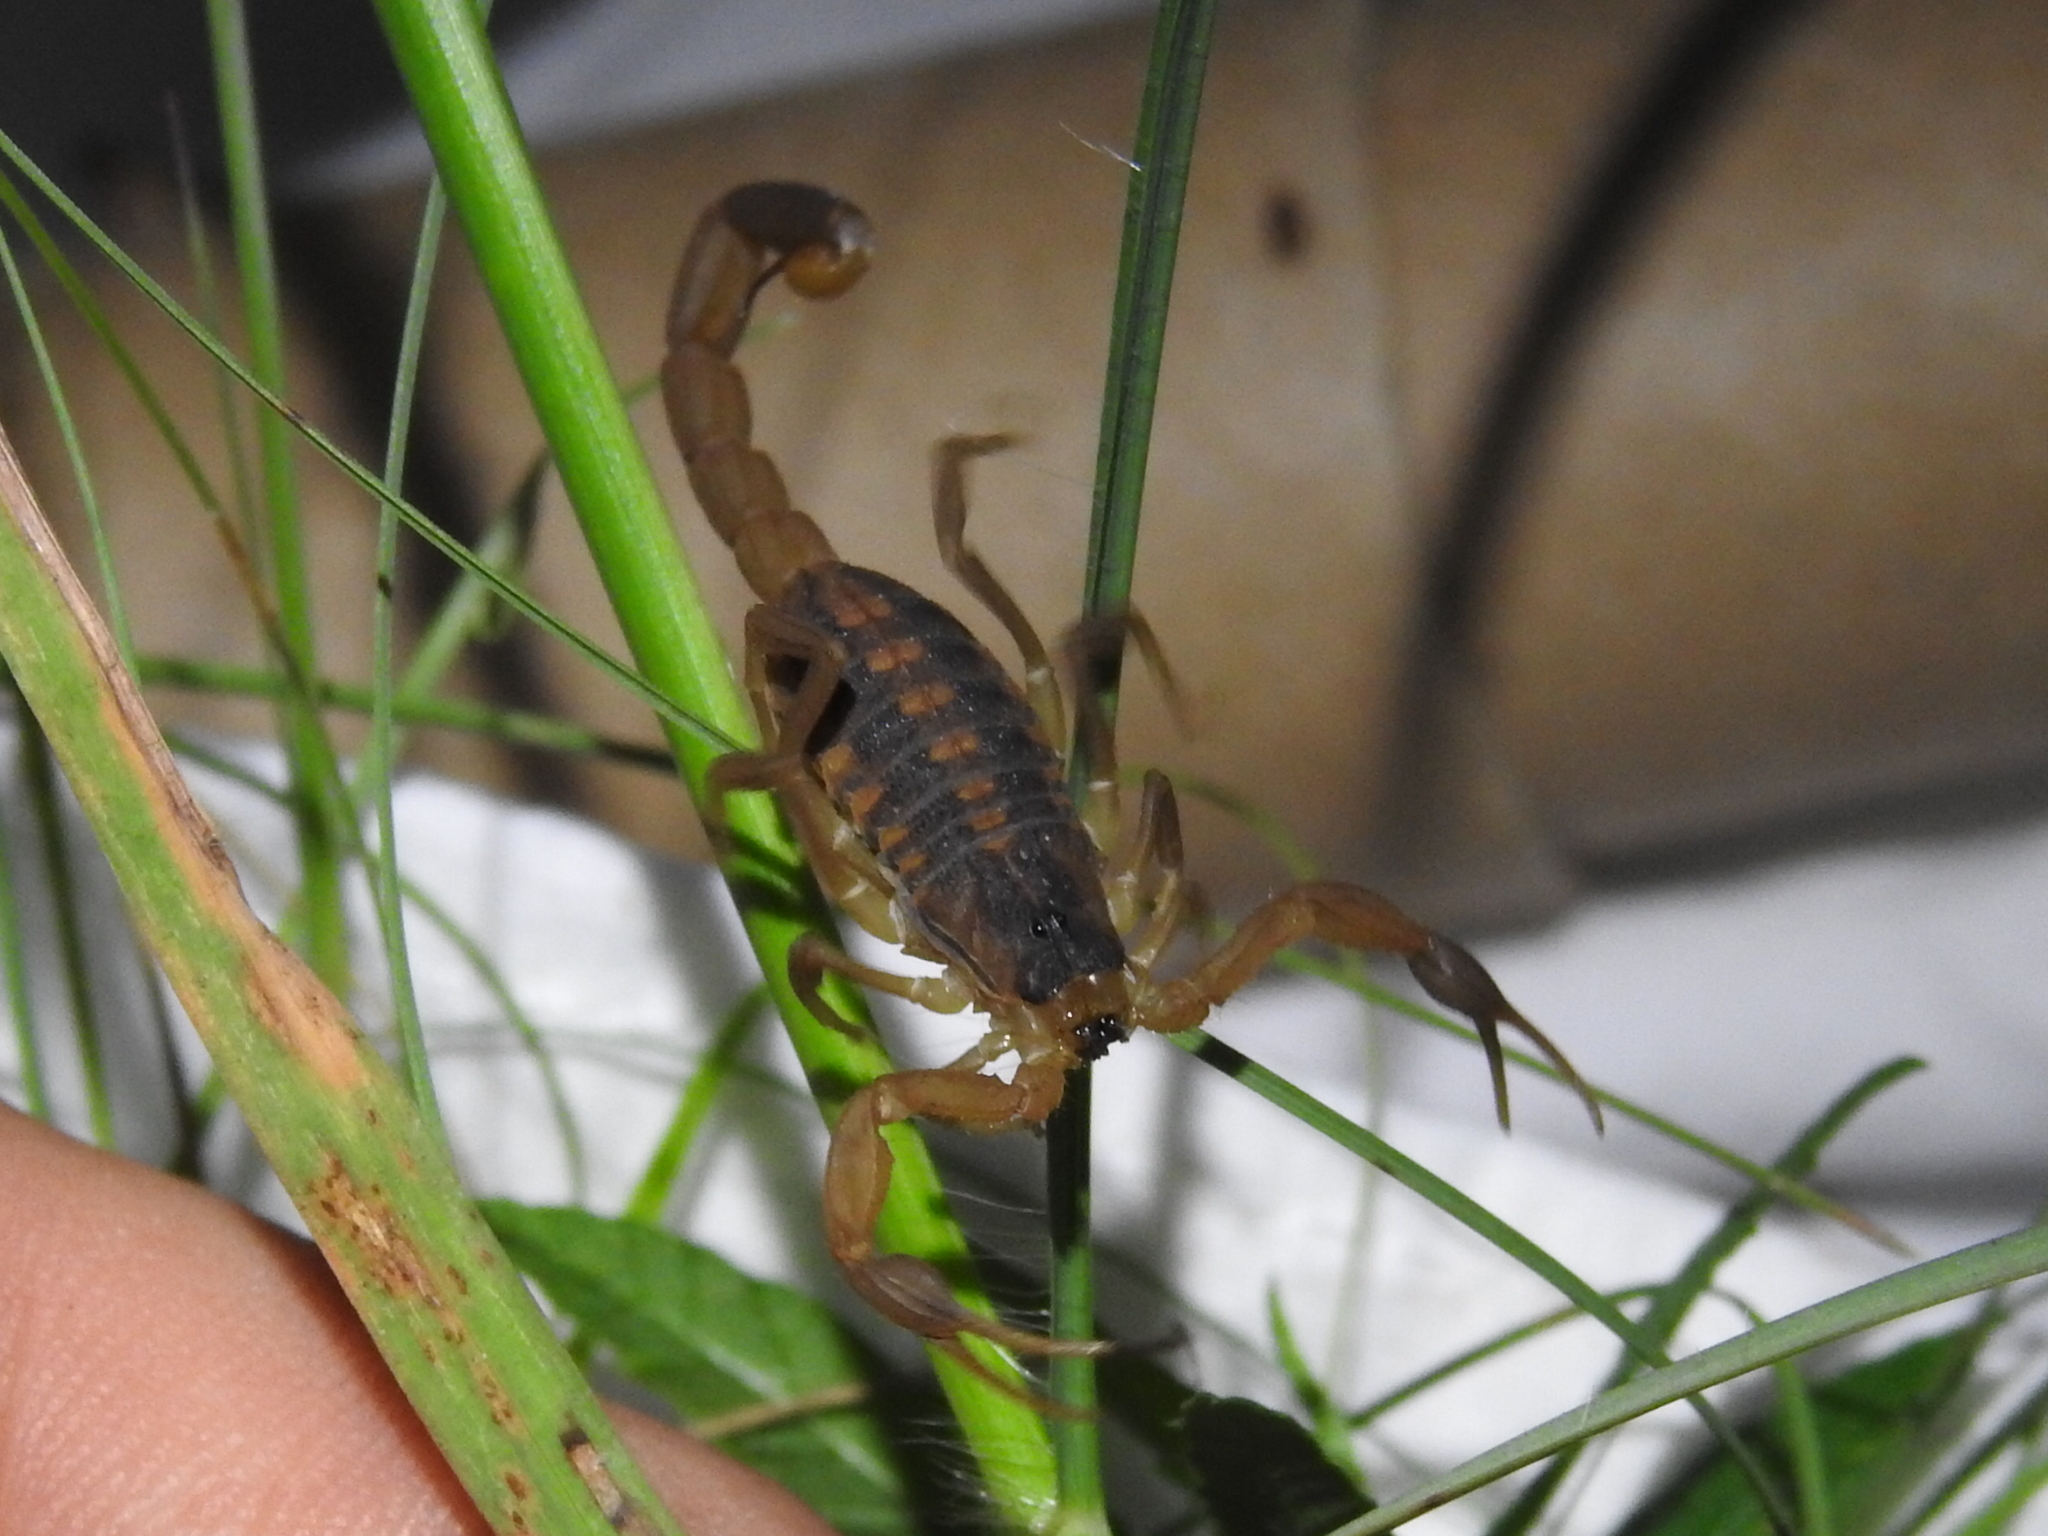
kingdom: Animalia
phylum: Arthropoda
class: Arachnida
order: Scorpiones
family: Buthidae
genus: Centruroides
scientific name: Centruroides vittatus
